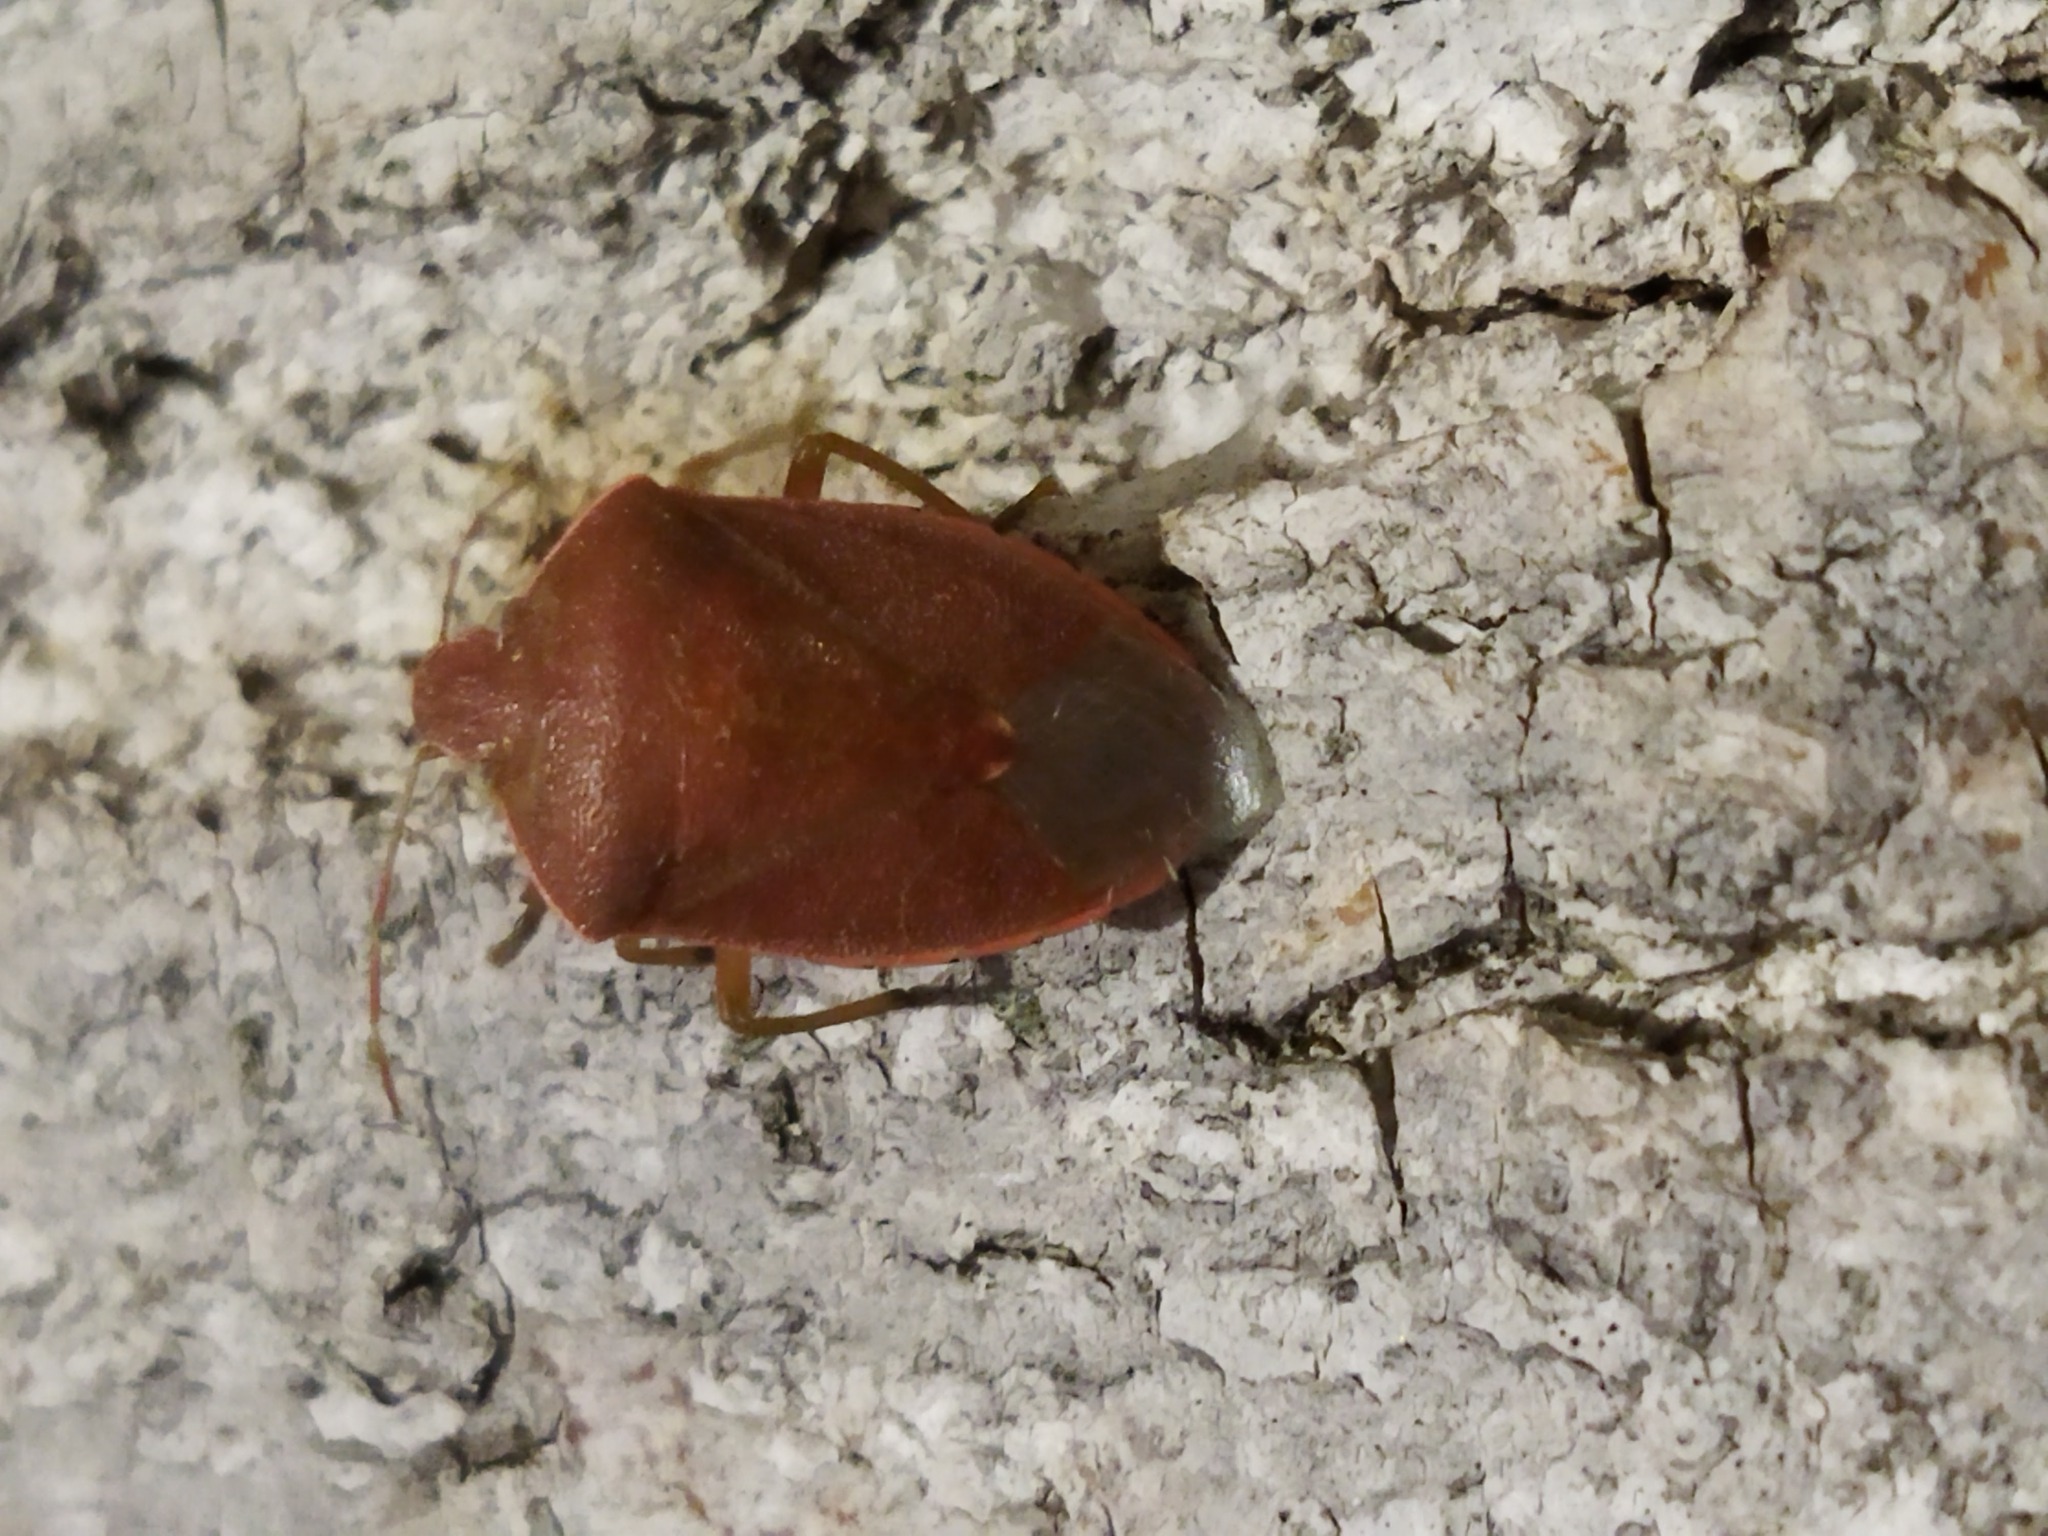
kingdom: Animalia
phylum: Arthropoda
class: Insecta
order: Hemiptera
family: Pentatomidae
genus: Acrosternum
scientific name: Acrosternum heegeri
